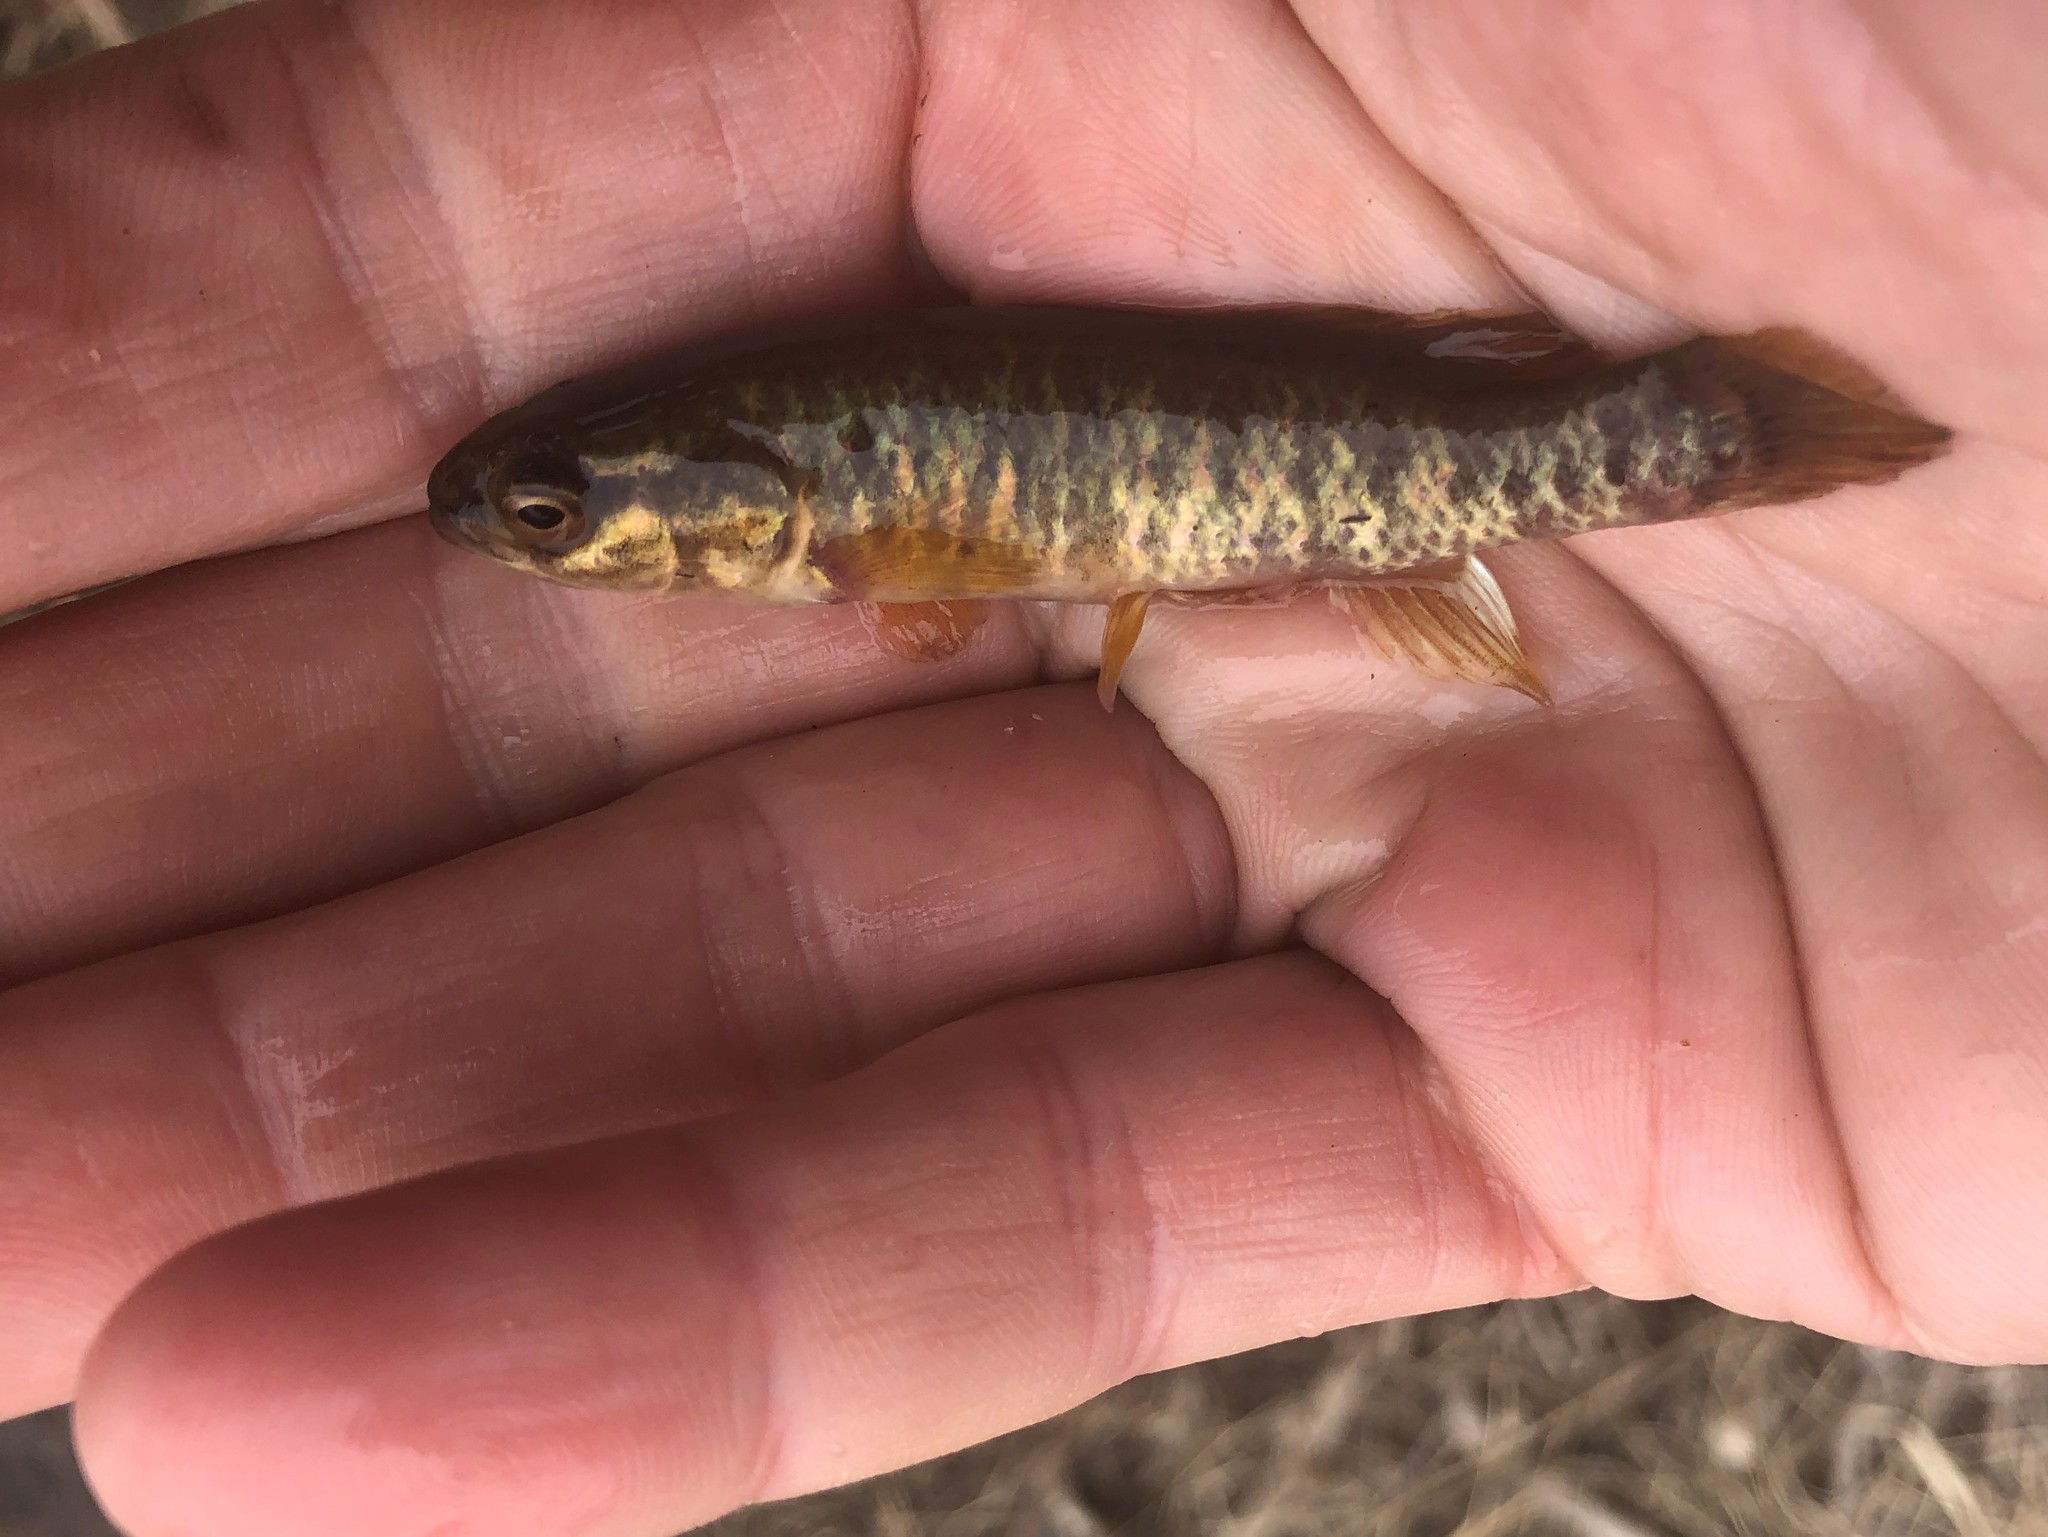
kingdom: Animalia
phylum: Chordata
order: Esociformes
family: Umbridae
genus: Umbra
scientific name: Umbra limi
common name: Central mudminnow
